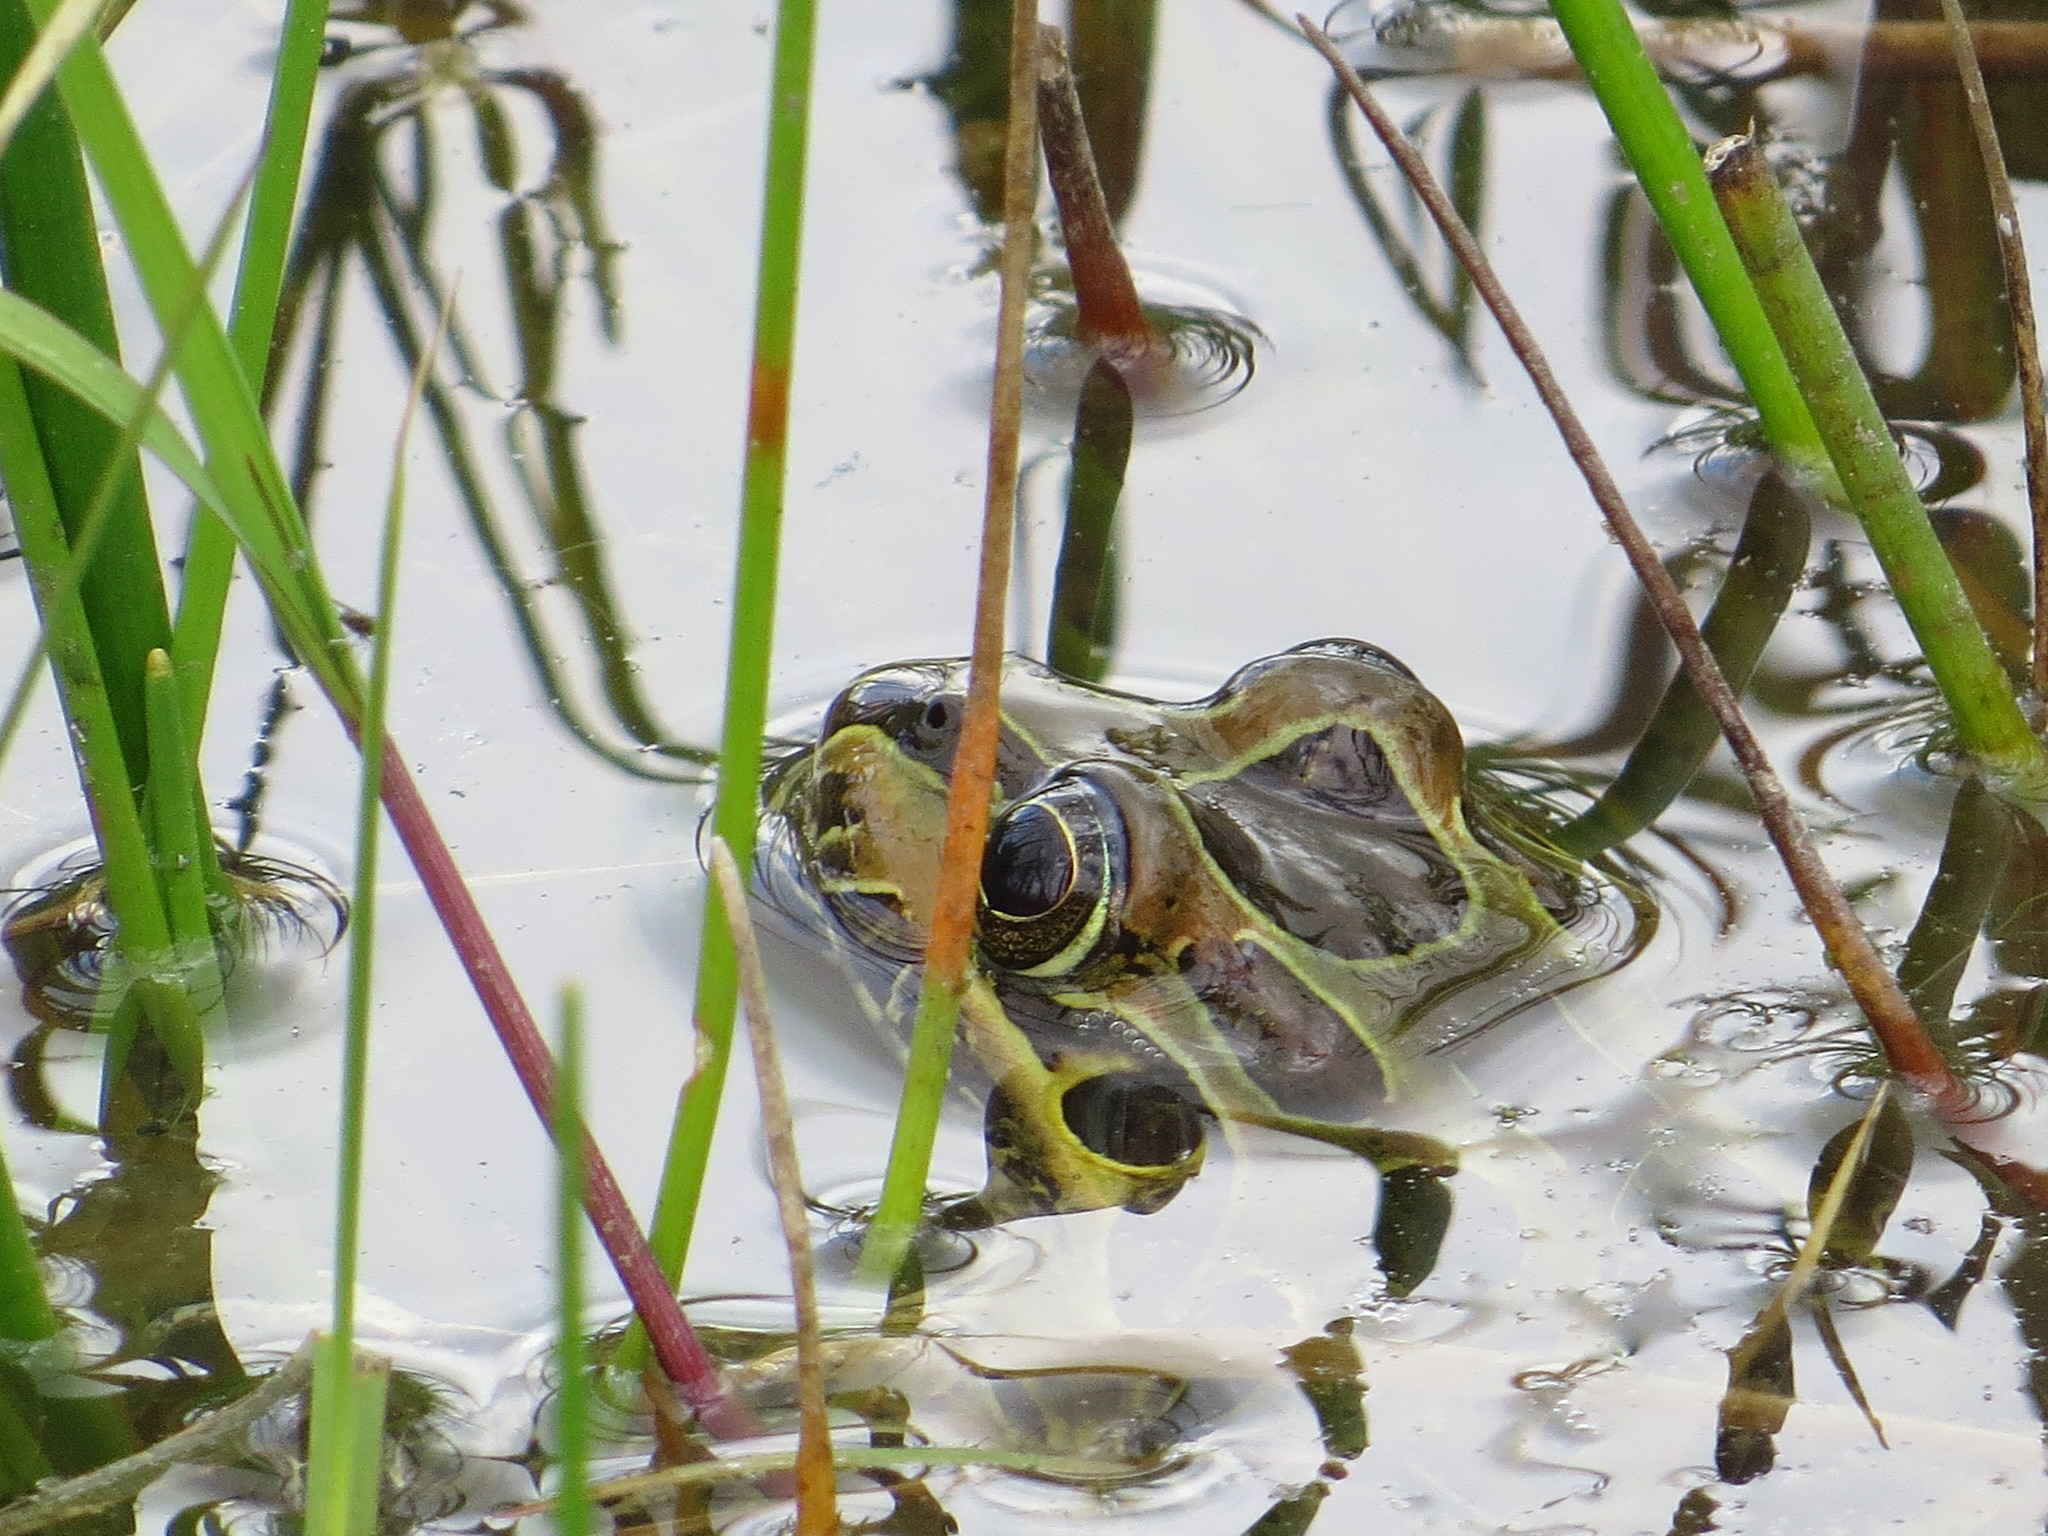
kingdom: Animalia
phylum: Chordata
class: Amphibia
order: Anura
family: Leptodactylidae
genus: Leptodactylus
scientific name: Leptodactylus luctator
